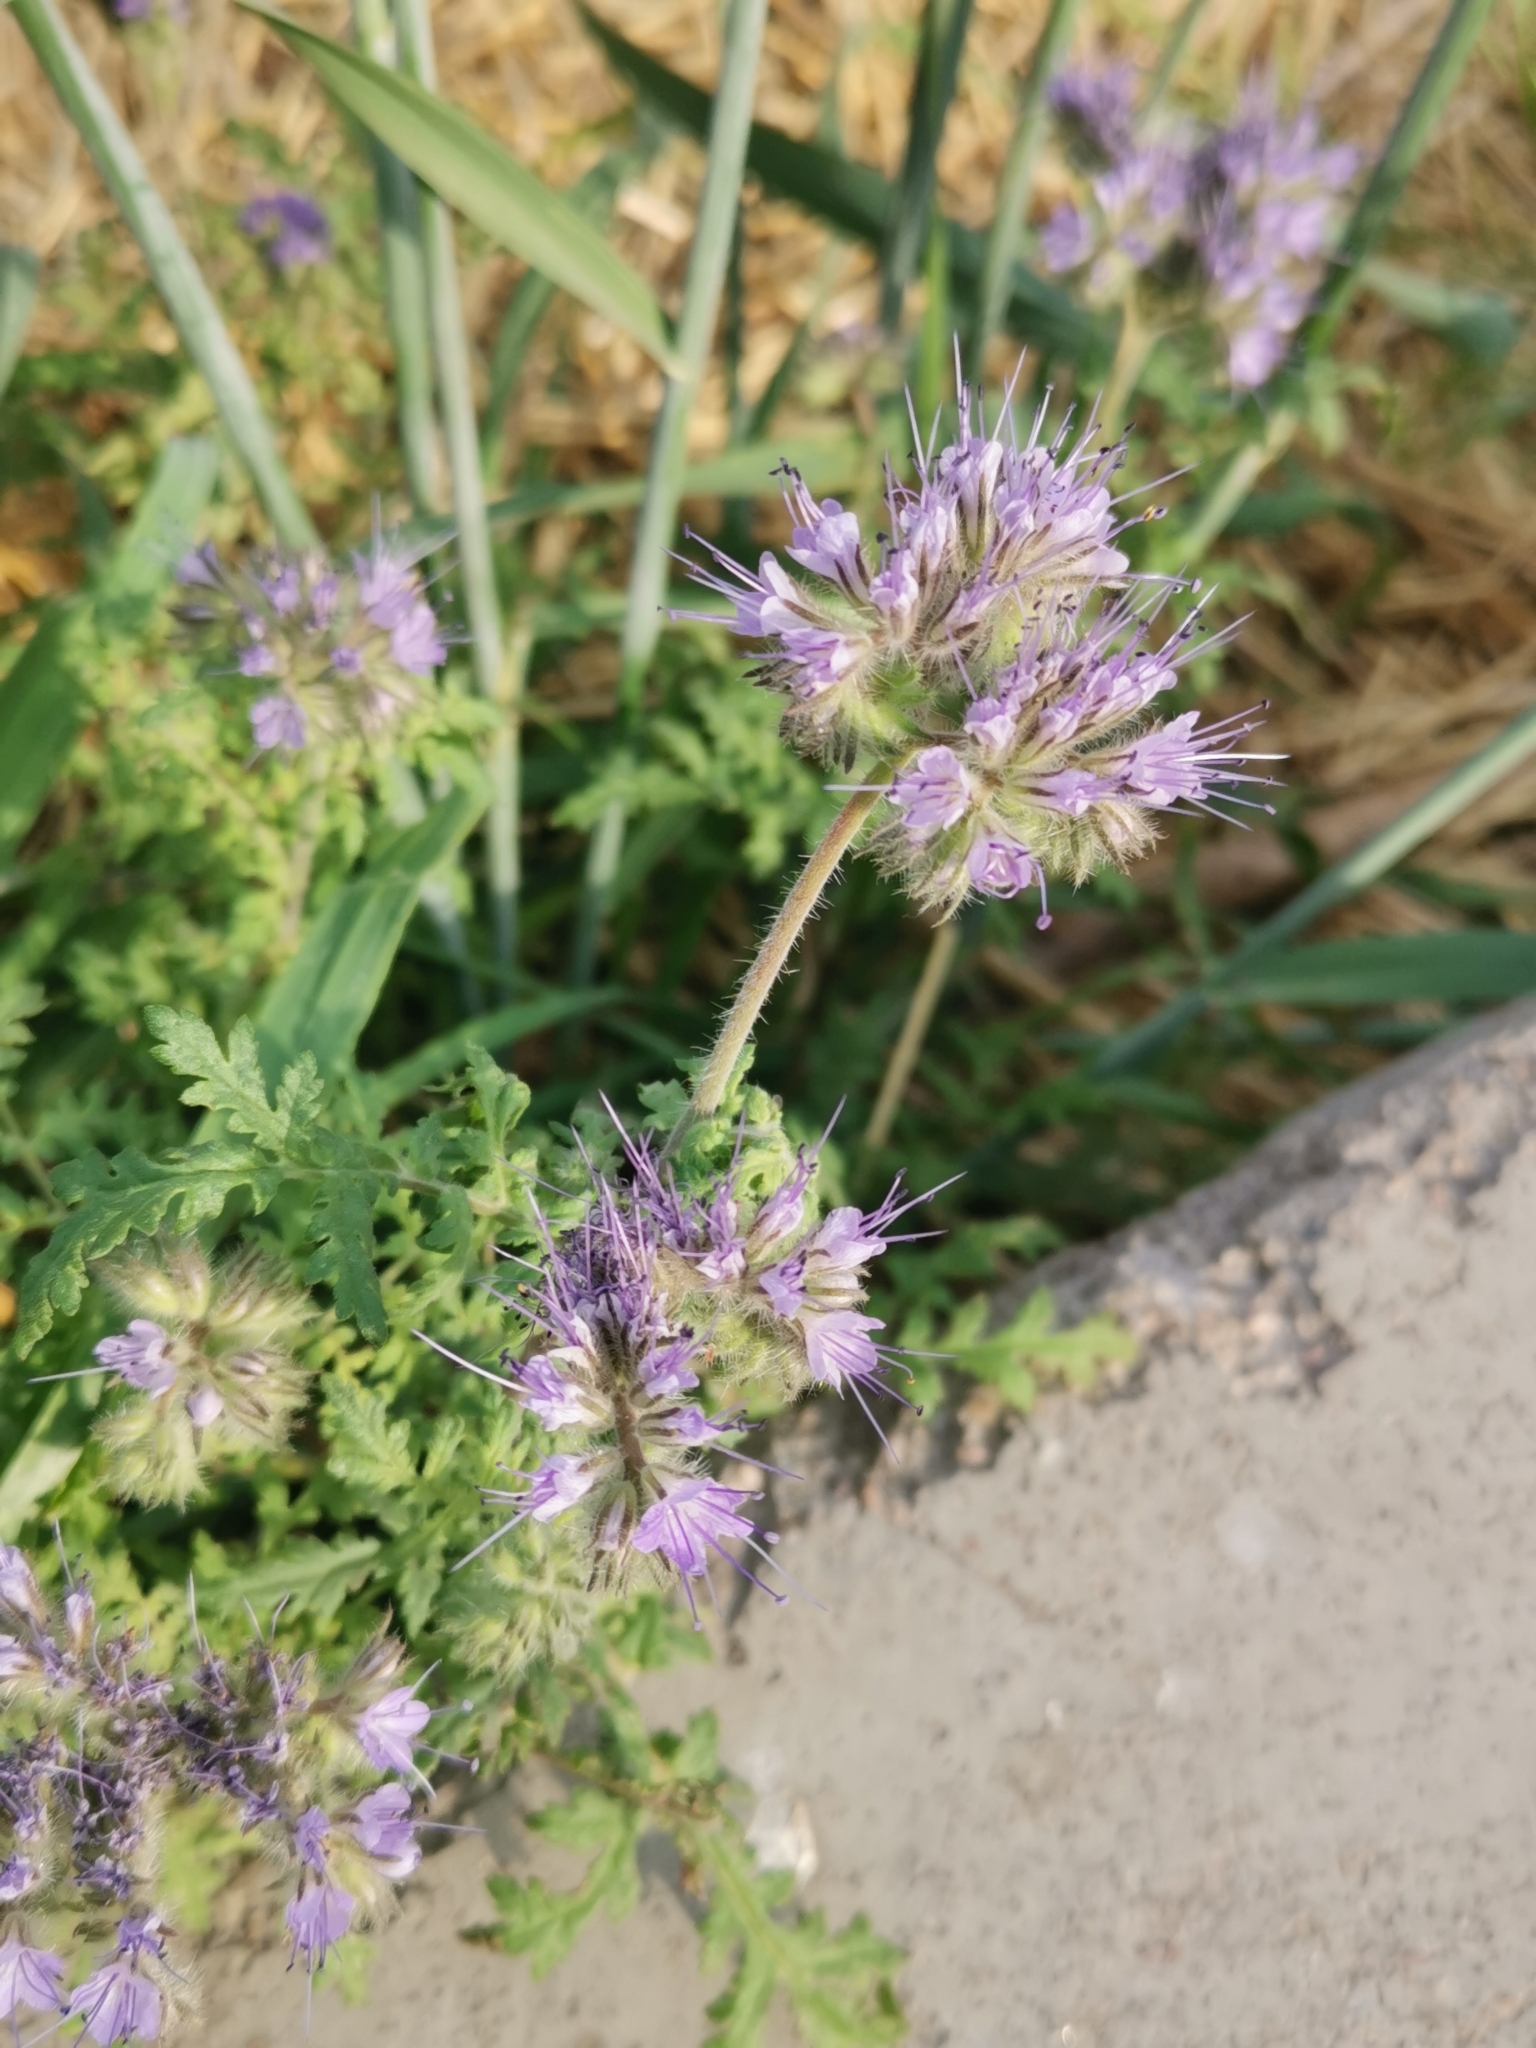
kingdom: Plantae
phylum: Tracheophyta
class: Magnoliopsida
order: Boraginales
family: Hydrophyllaceae
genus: Phacelia
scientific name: Phacelia tanacetifolia
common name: Phacelia
